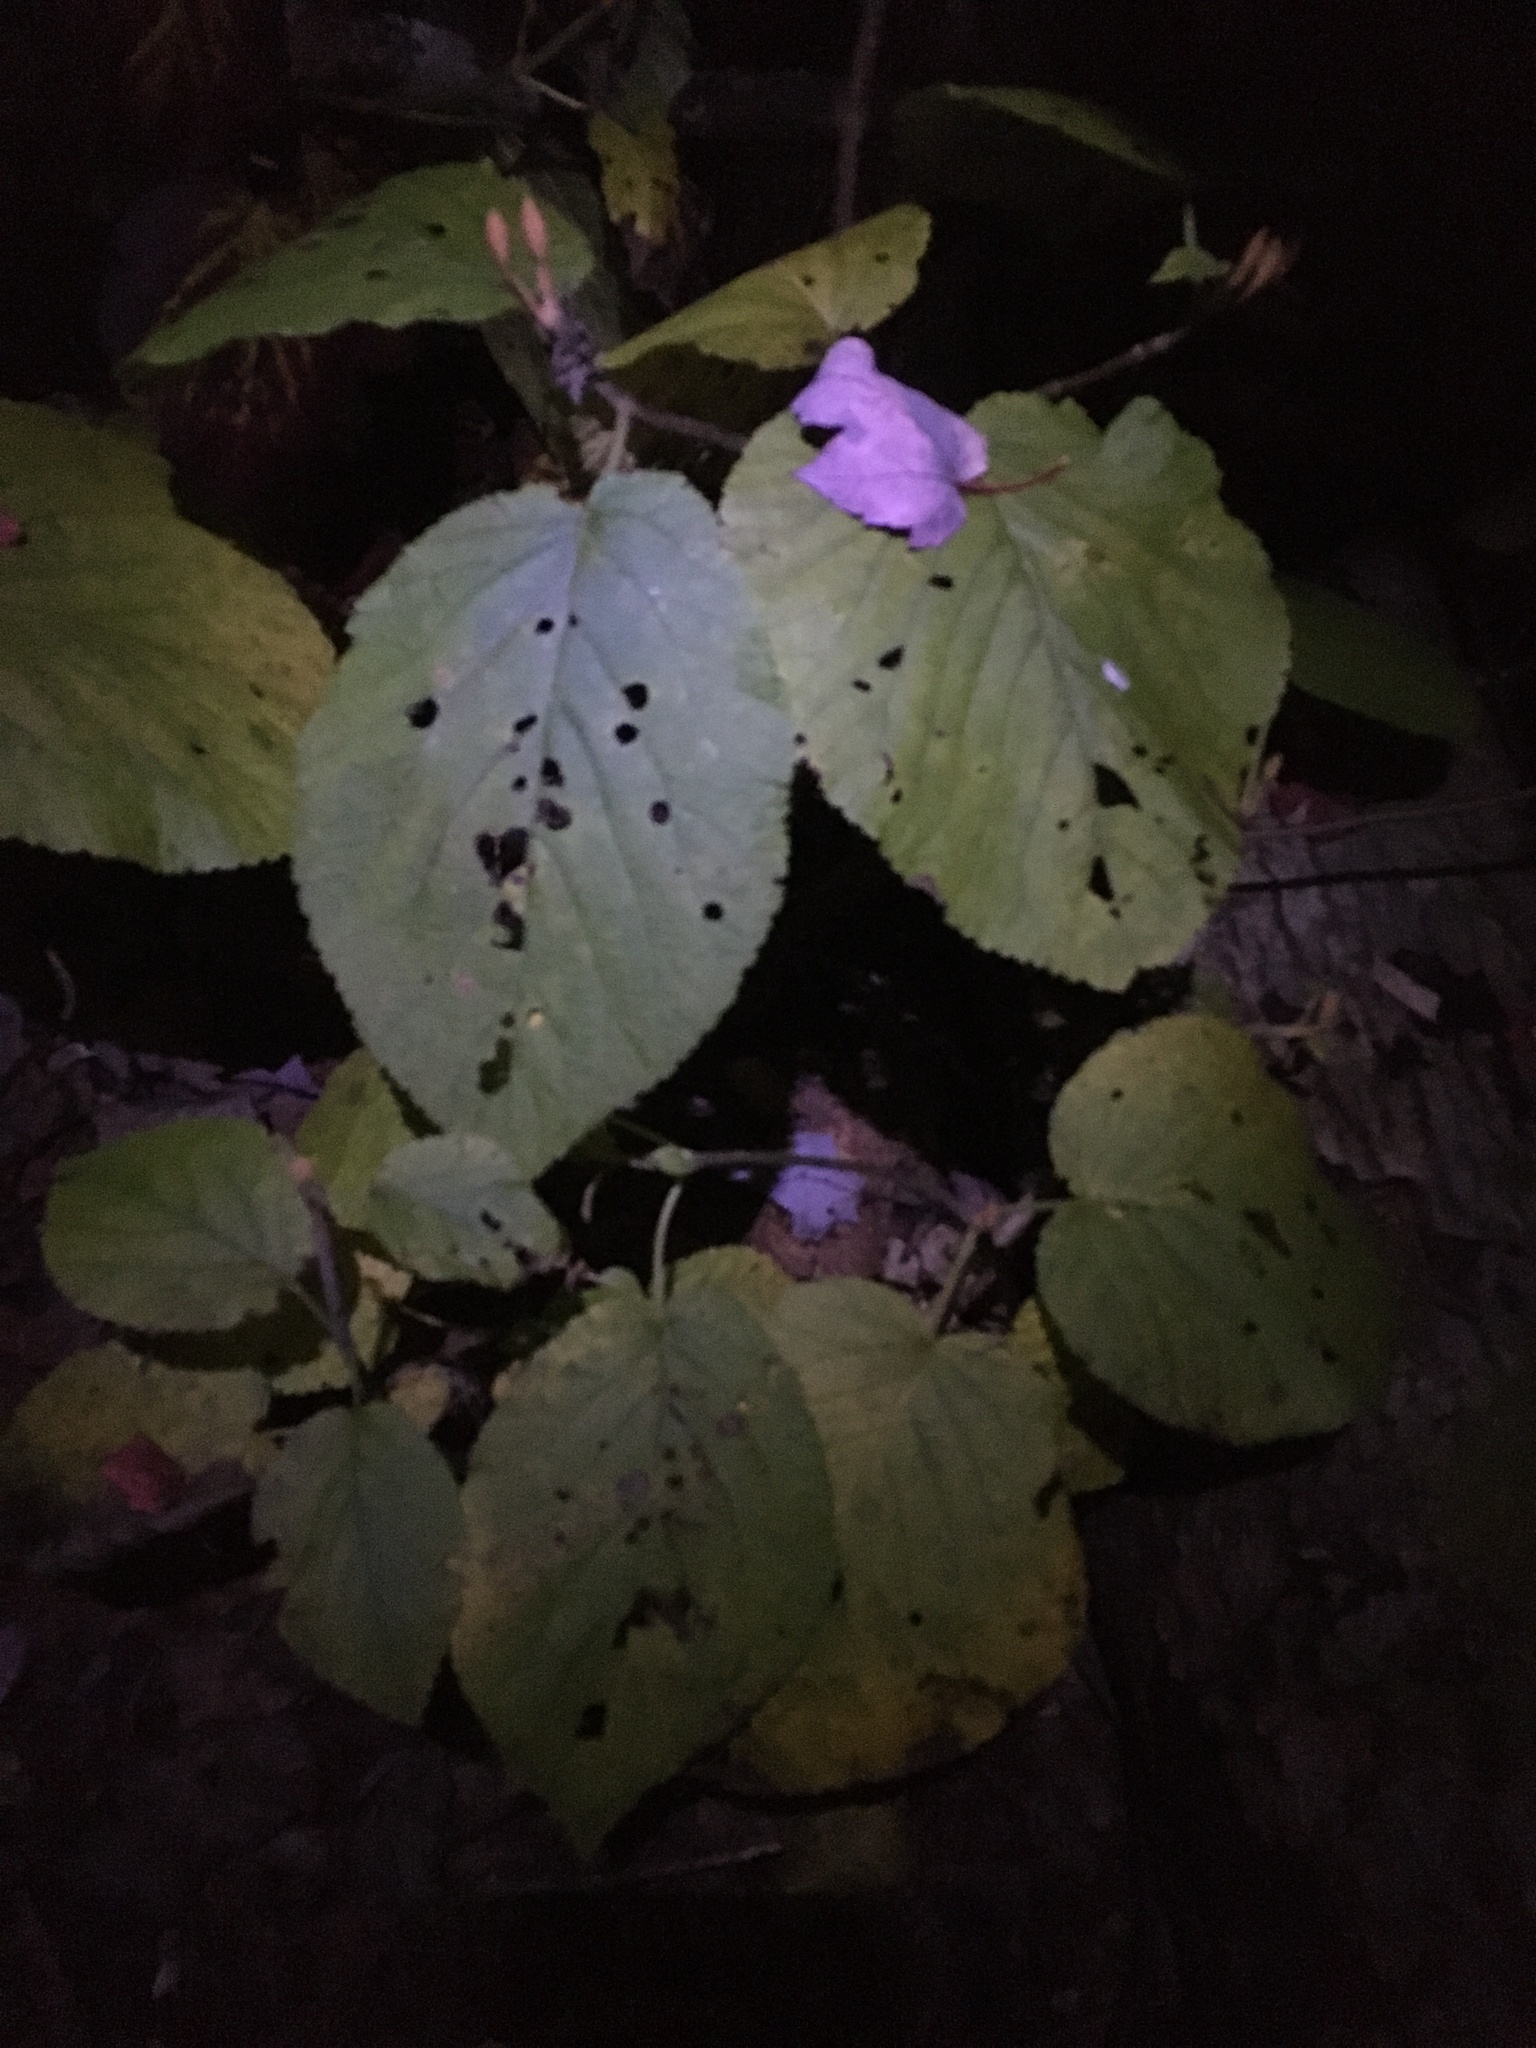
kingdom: Plantae
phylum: Tracheophyta
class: Magnoliopsida
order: Dipsacales
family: Viburnaceae
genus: Viburnum
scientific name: Viburnum lantanoides
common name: Hobblebush
